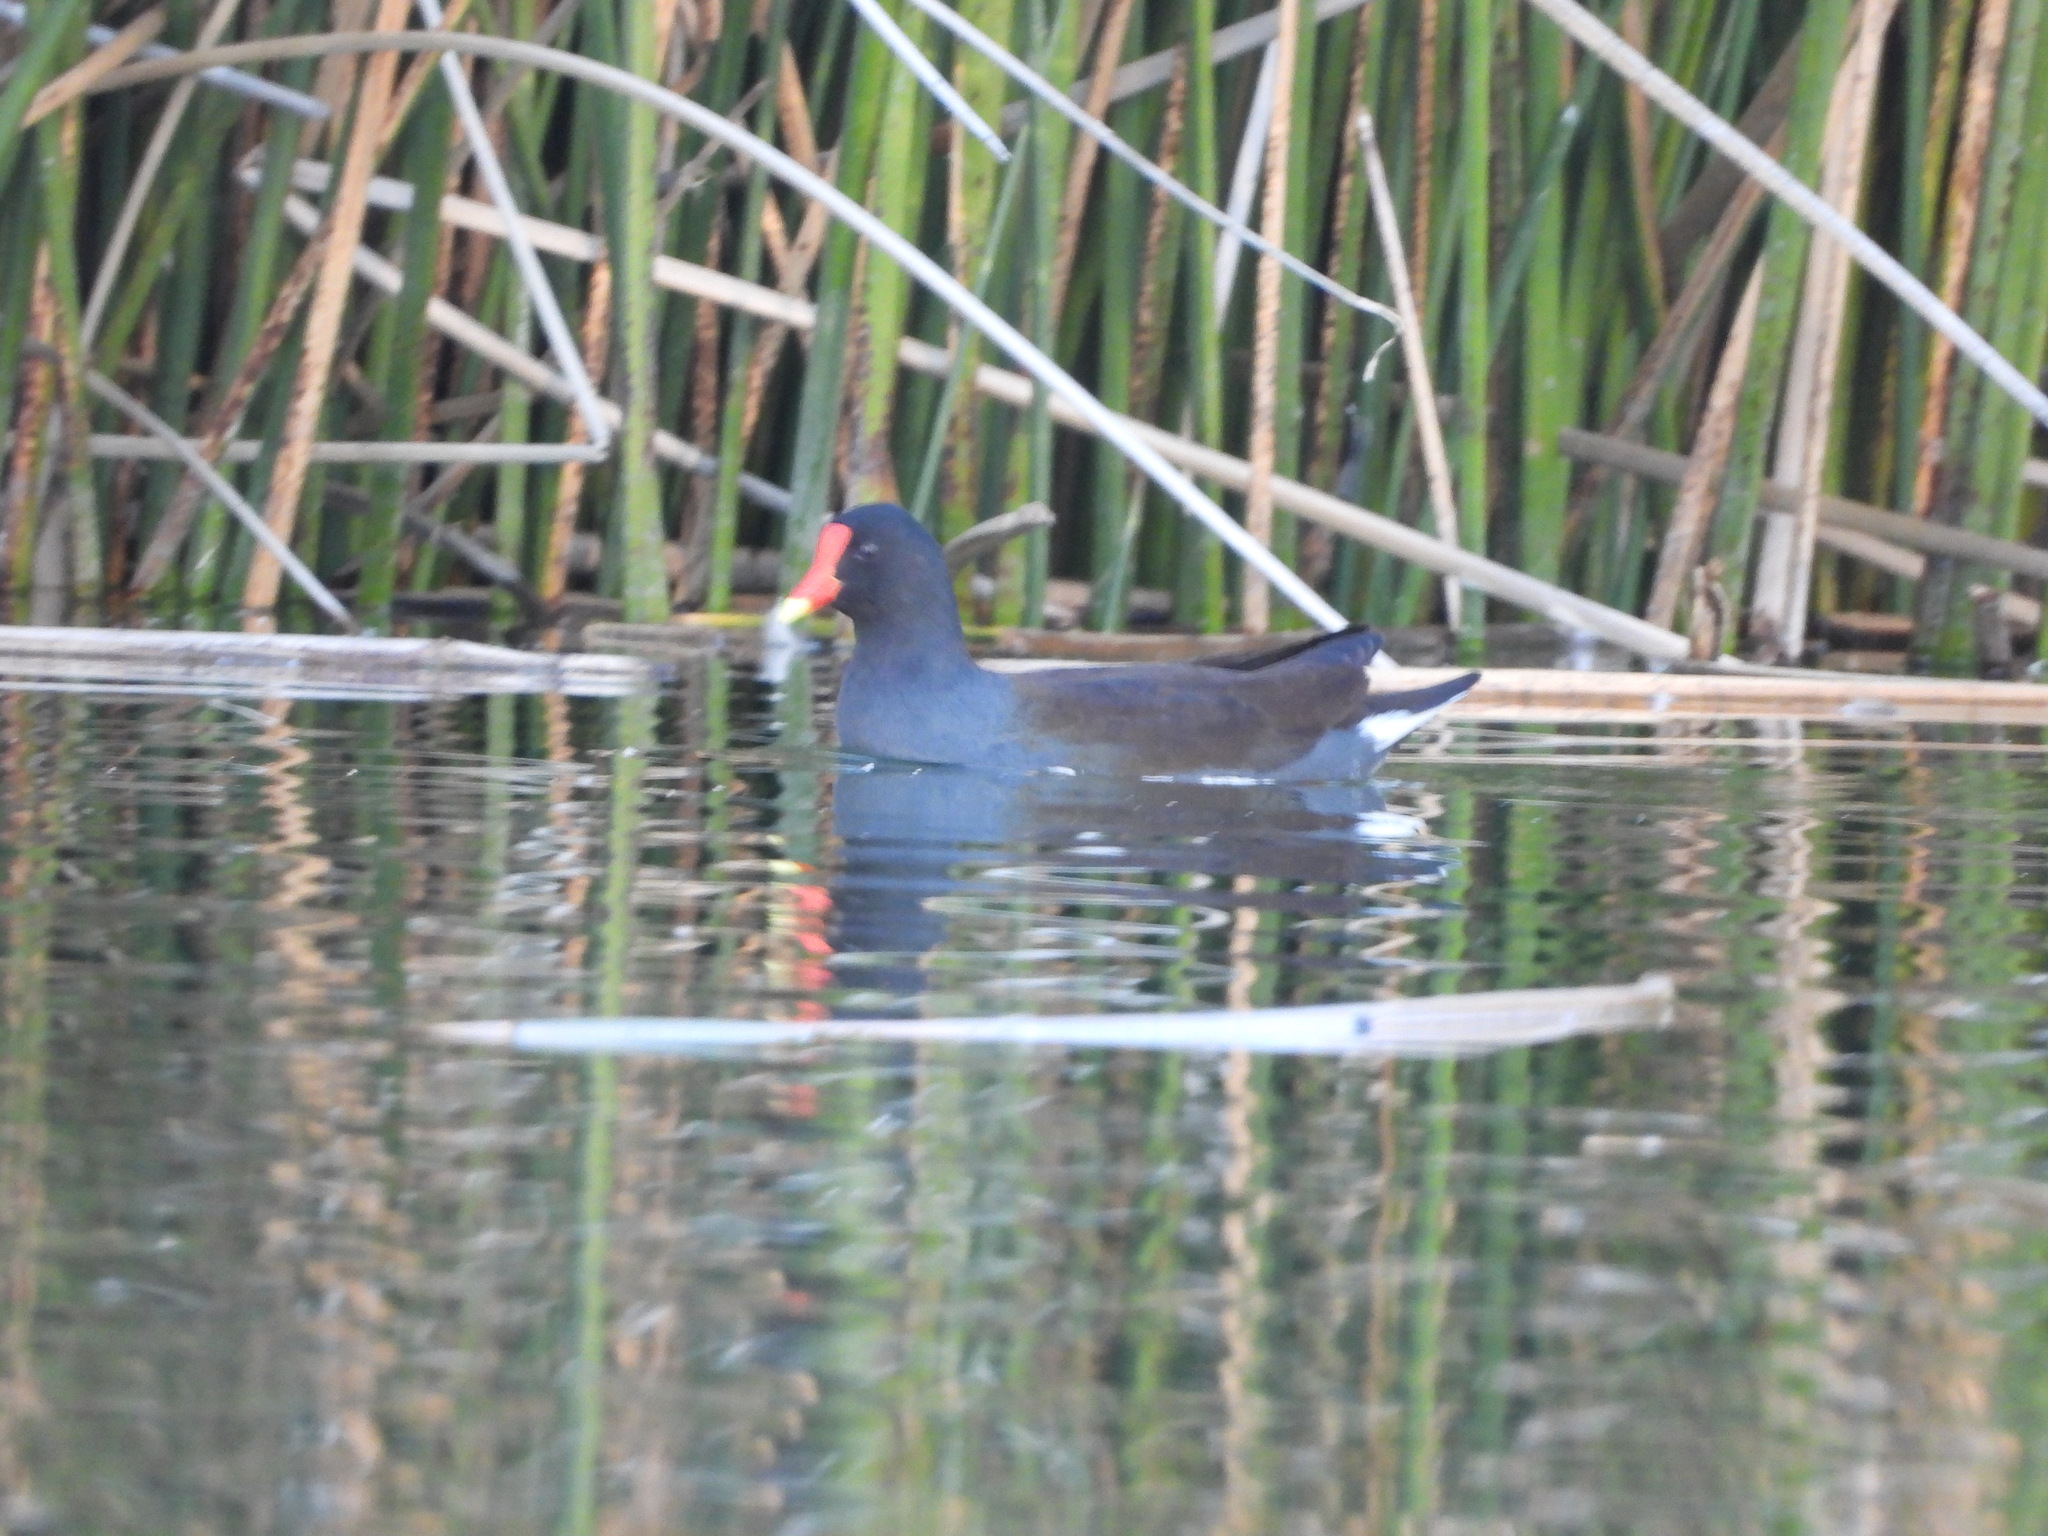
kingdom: Animalia
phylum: Chordata
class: Aves
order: Gruiformes
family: Rallidae
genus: Gallinula
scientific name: Gallinula chloropus
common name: Common moorhen
